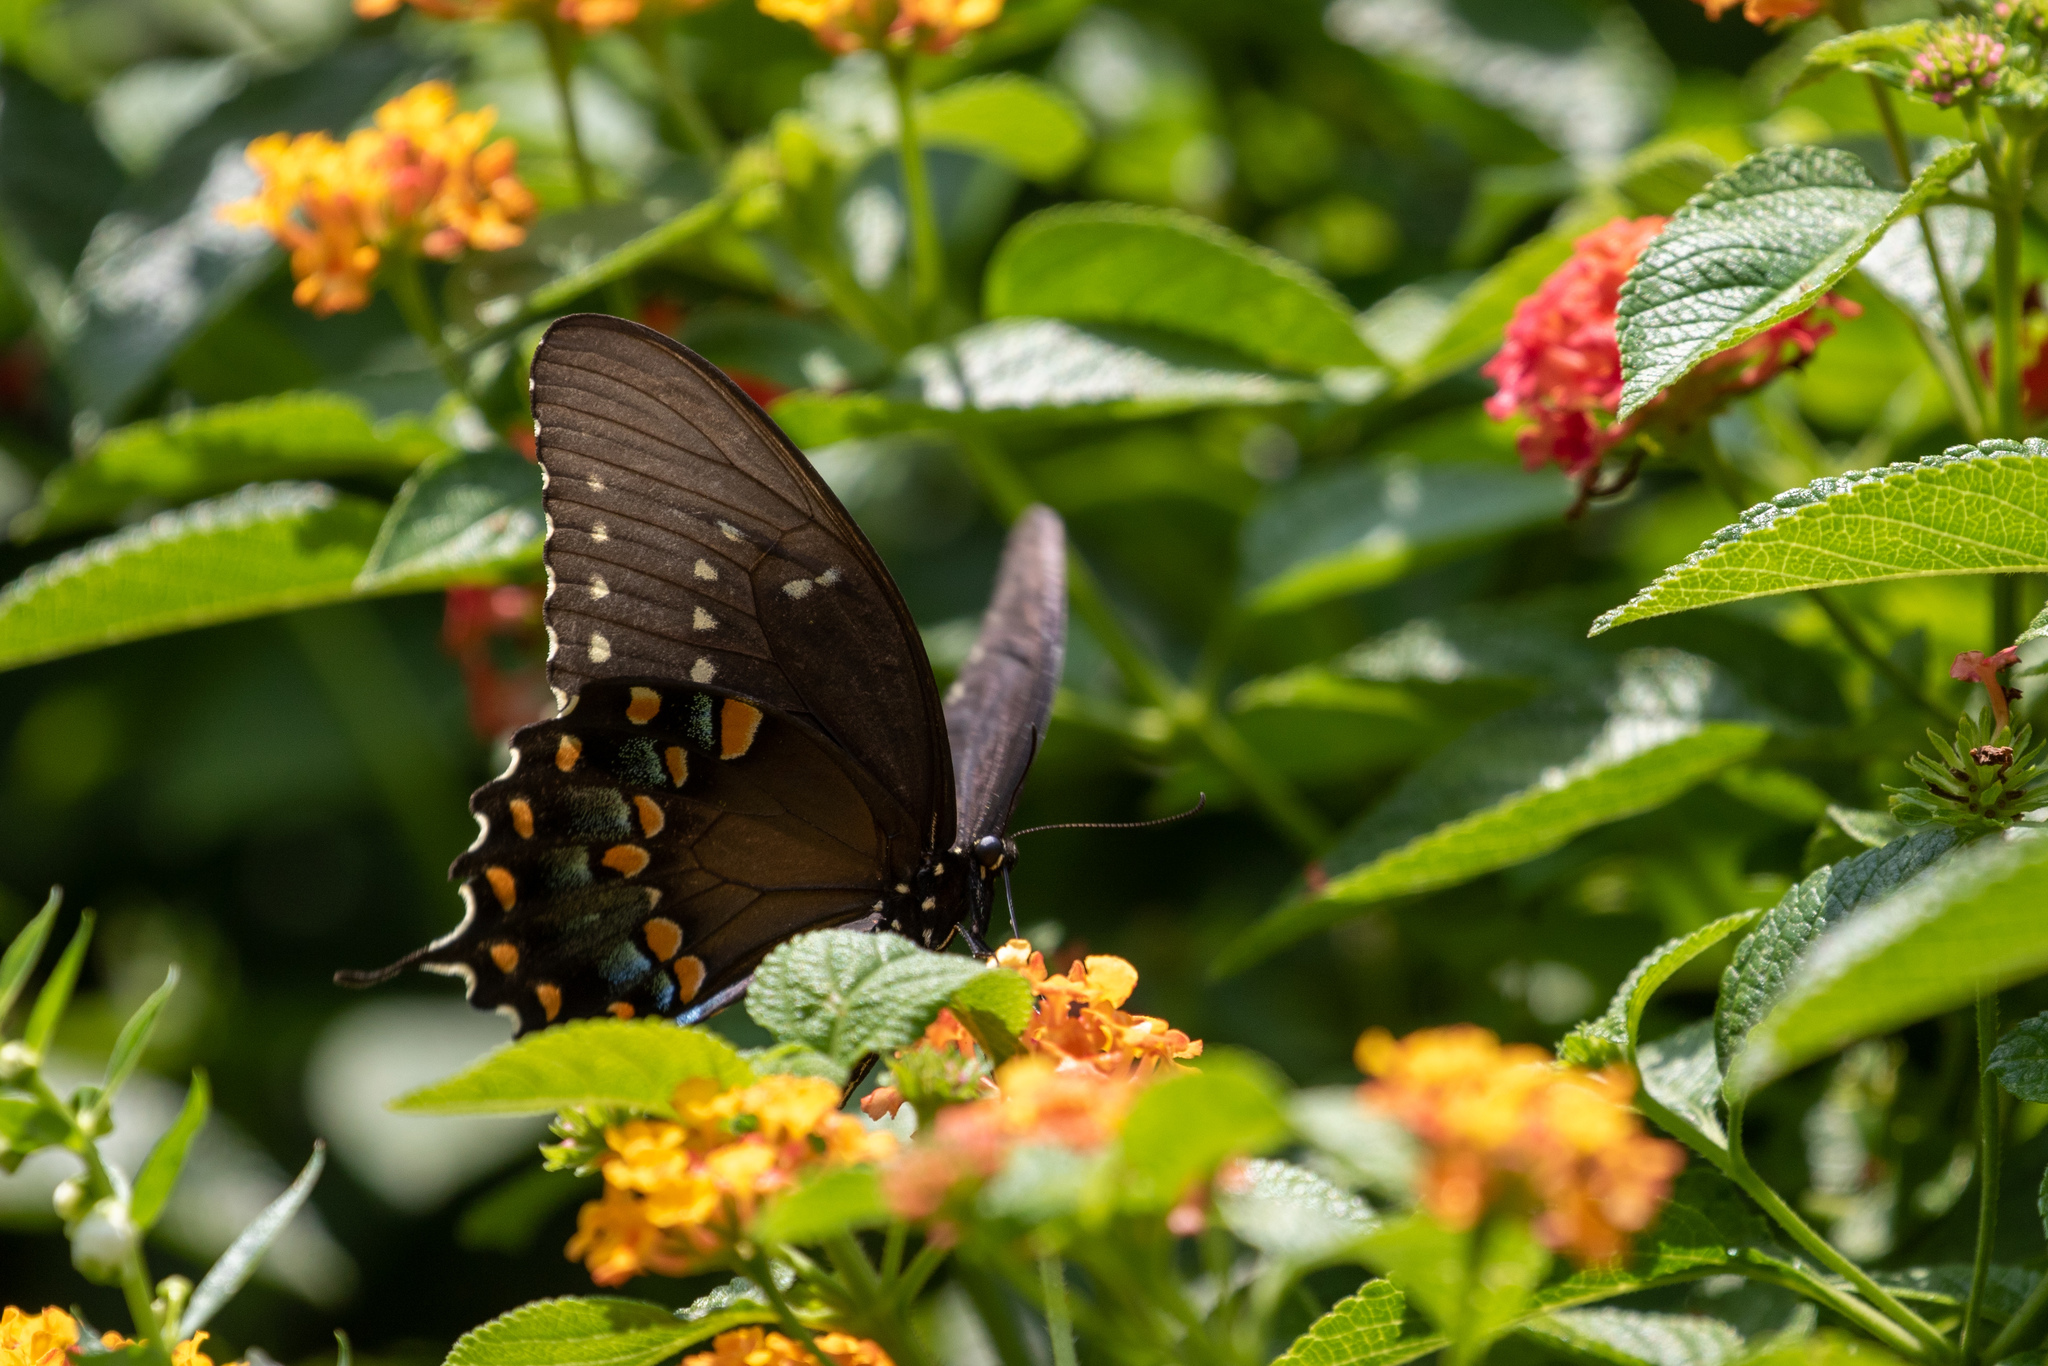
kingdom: Animalia
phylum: Arthropoda
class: Insecta
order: Lepidoptera
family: Papilionidae
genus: Papilio
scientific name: Papilio troilus
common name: Spicebush swallowtail
